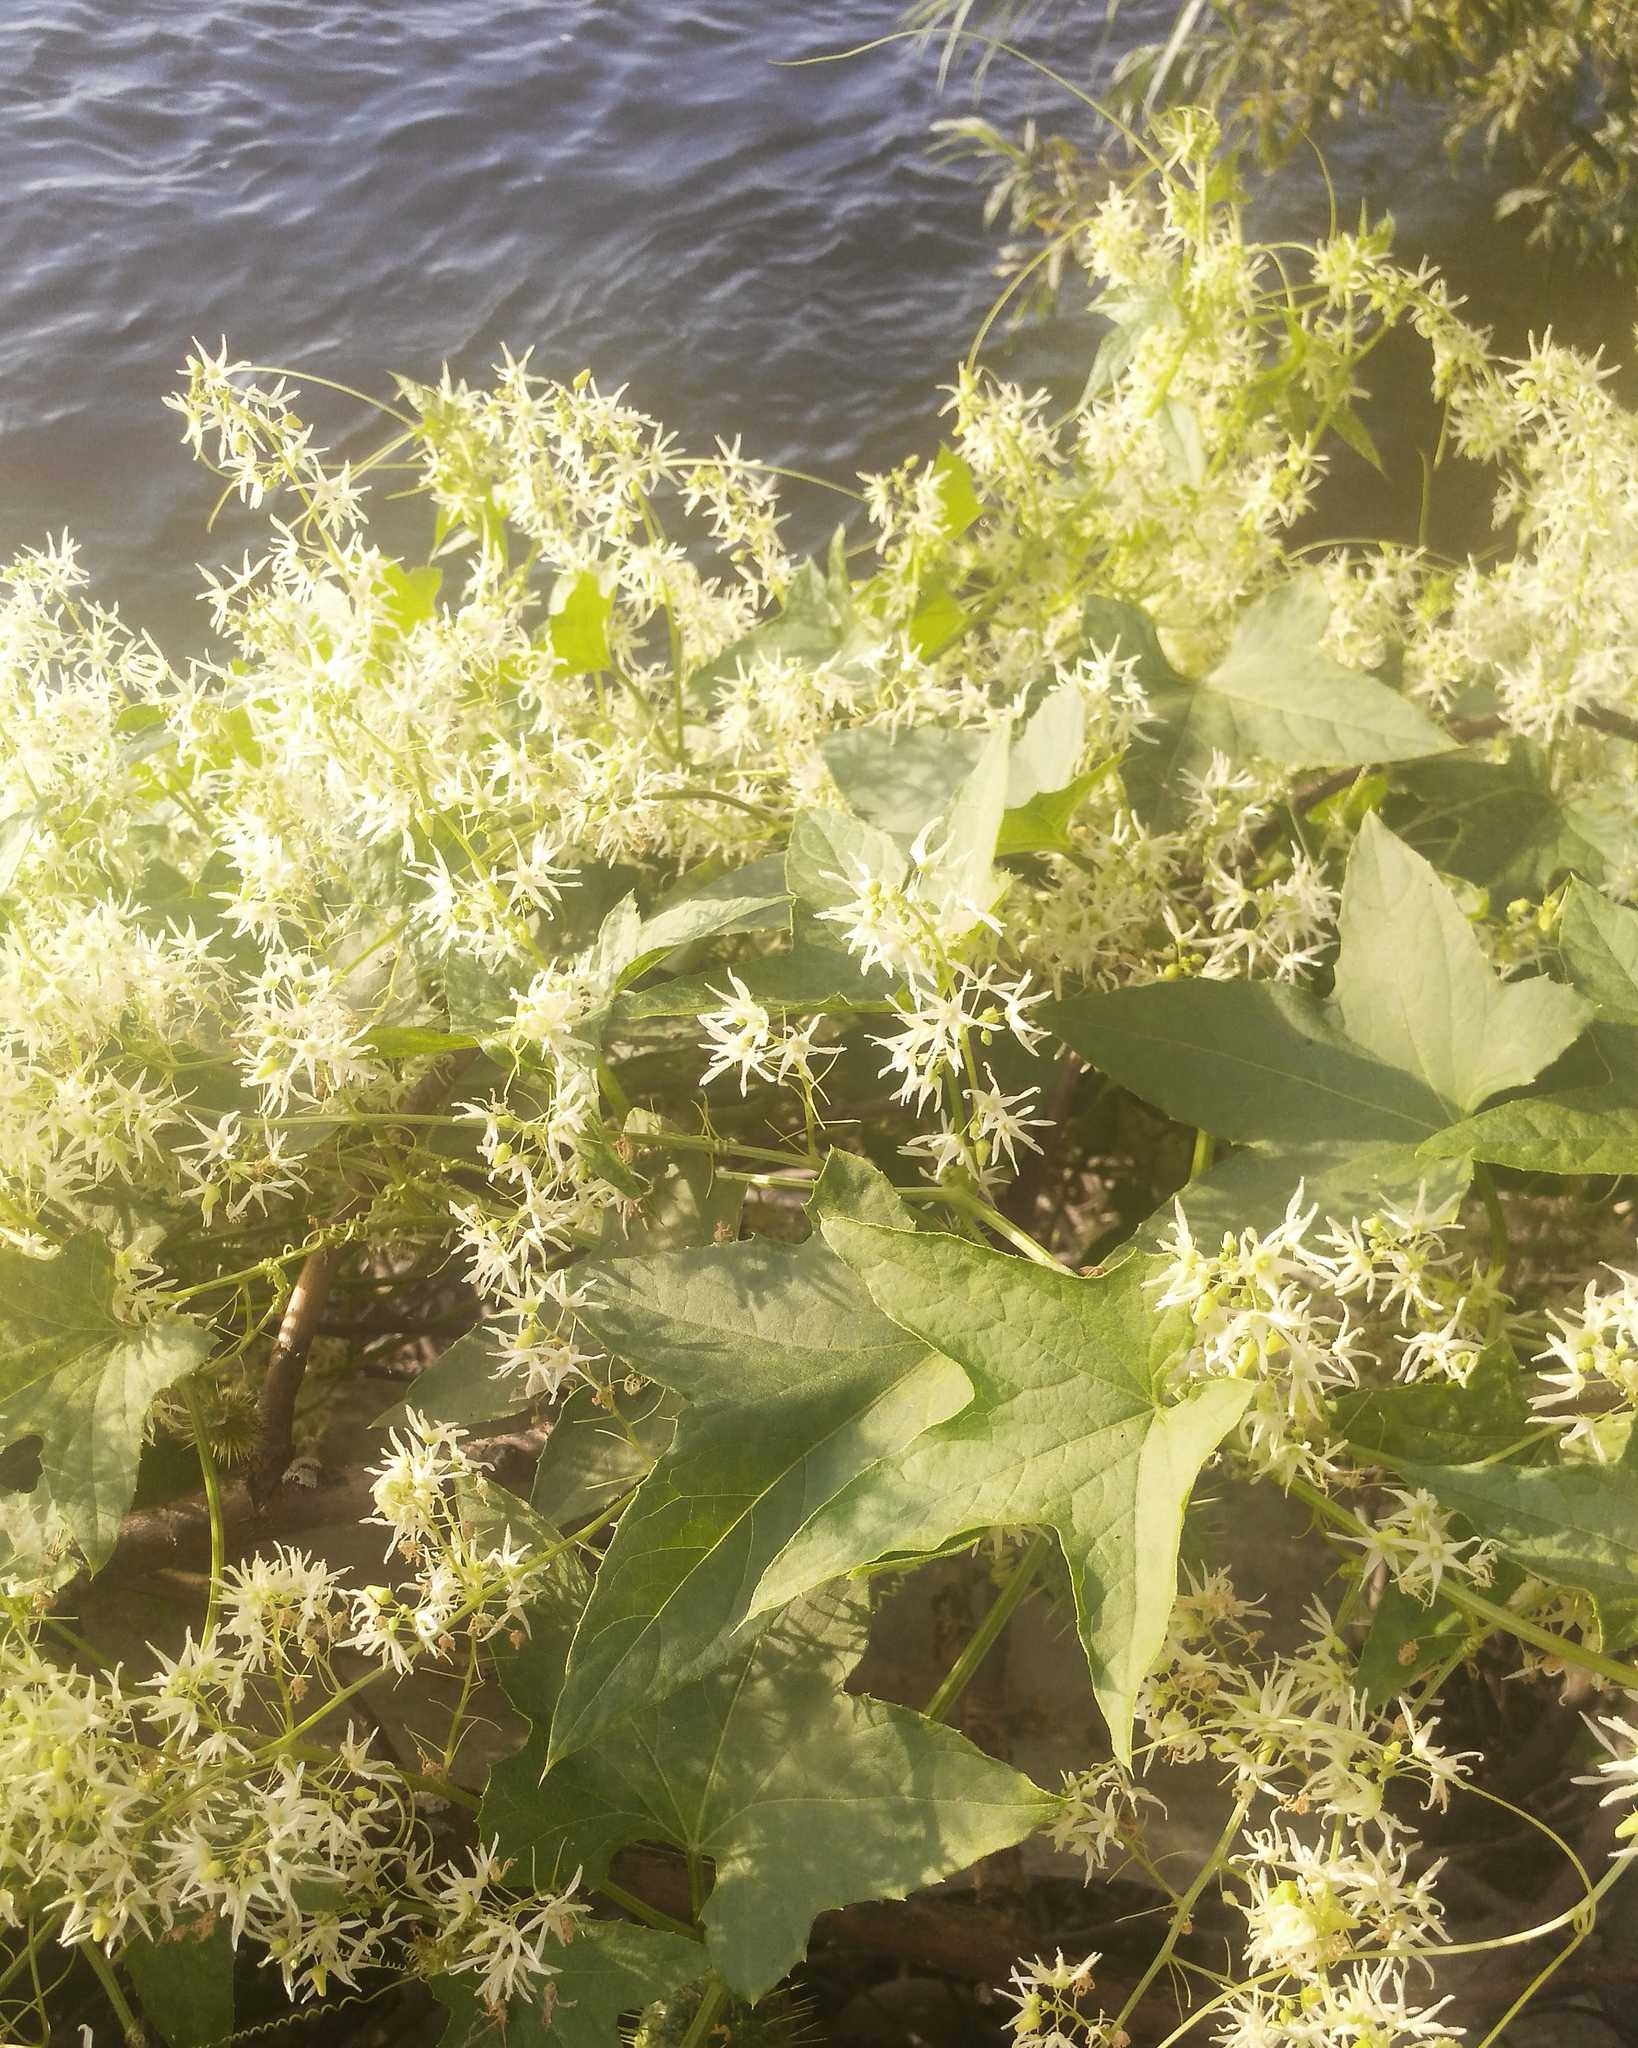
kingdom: Plantae
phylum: Tracheophyta
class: Magnoliopsida
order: Cucurbitales
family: Cucurbitaceae
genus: Echinocystis
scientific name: Echinocystis lobata
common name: Wild cucumber
